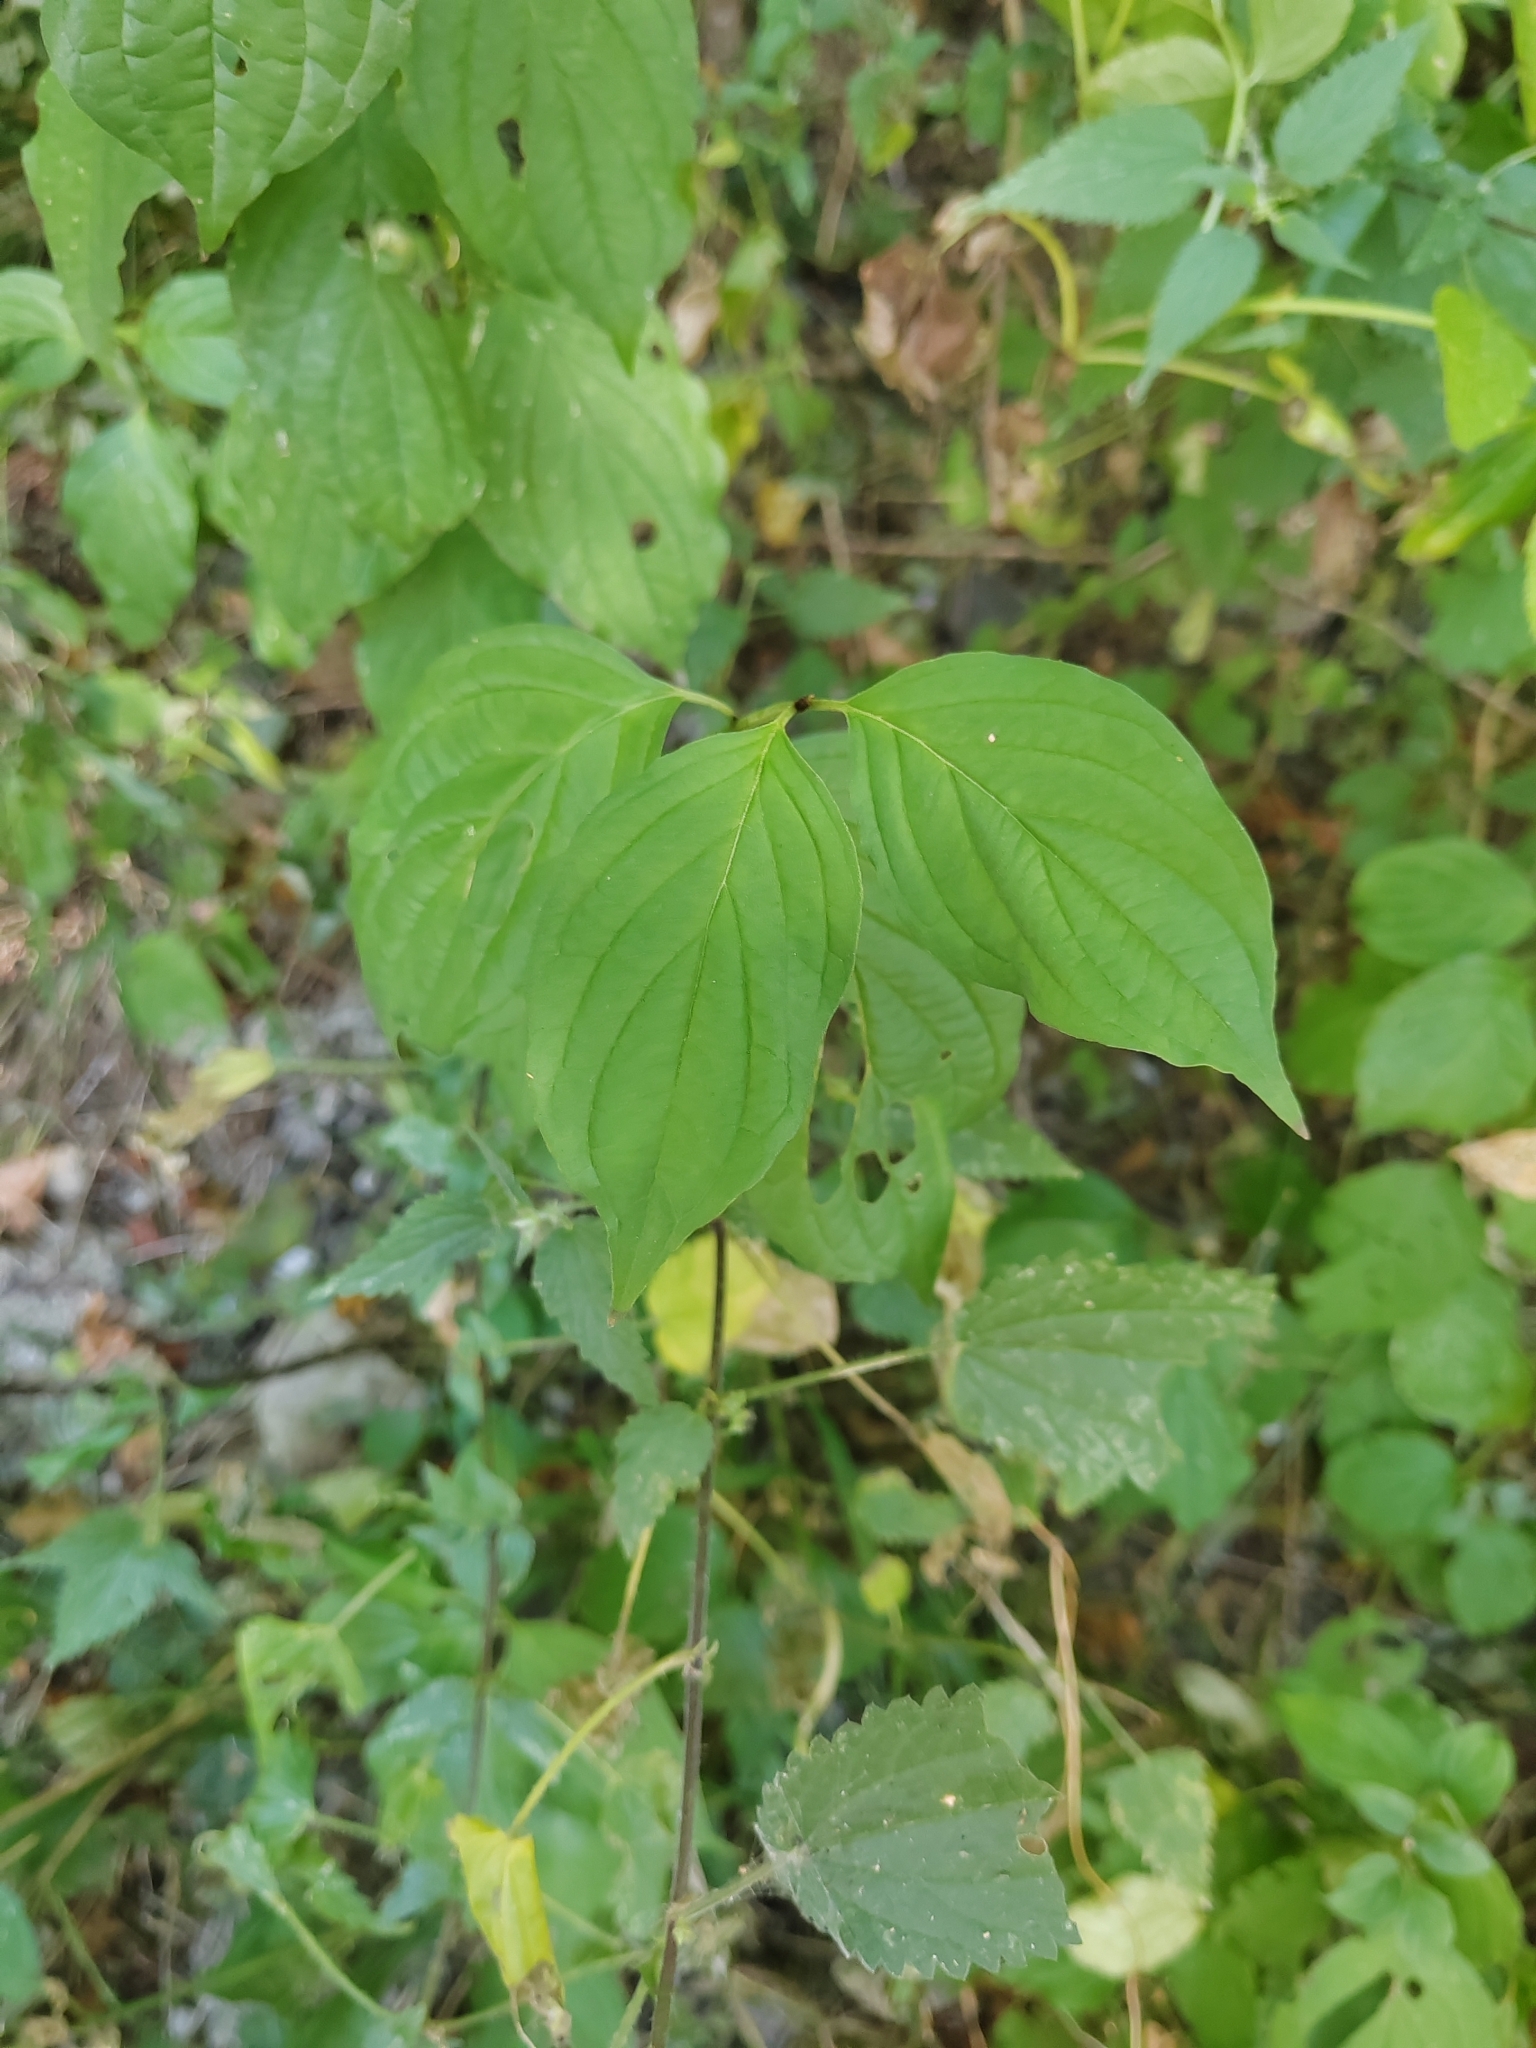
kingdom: Plantae
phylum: Tracheophyta
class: Magnoliopsida
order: Cornales
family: Cornaceae
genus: Cornus
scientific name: Cornus sanguinea
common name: Dogwood
